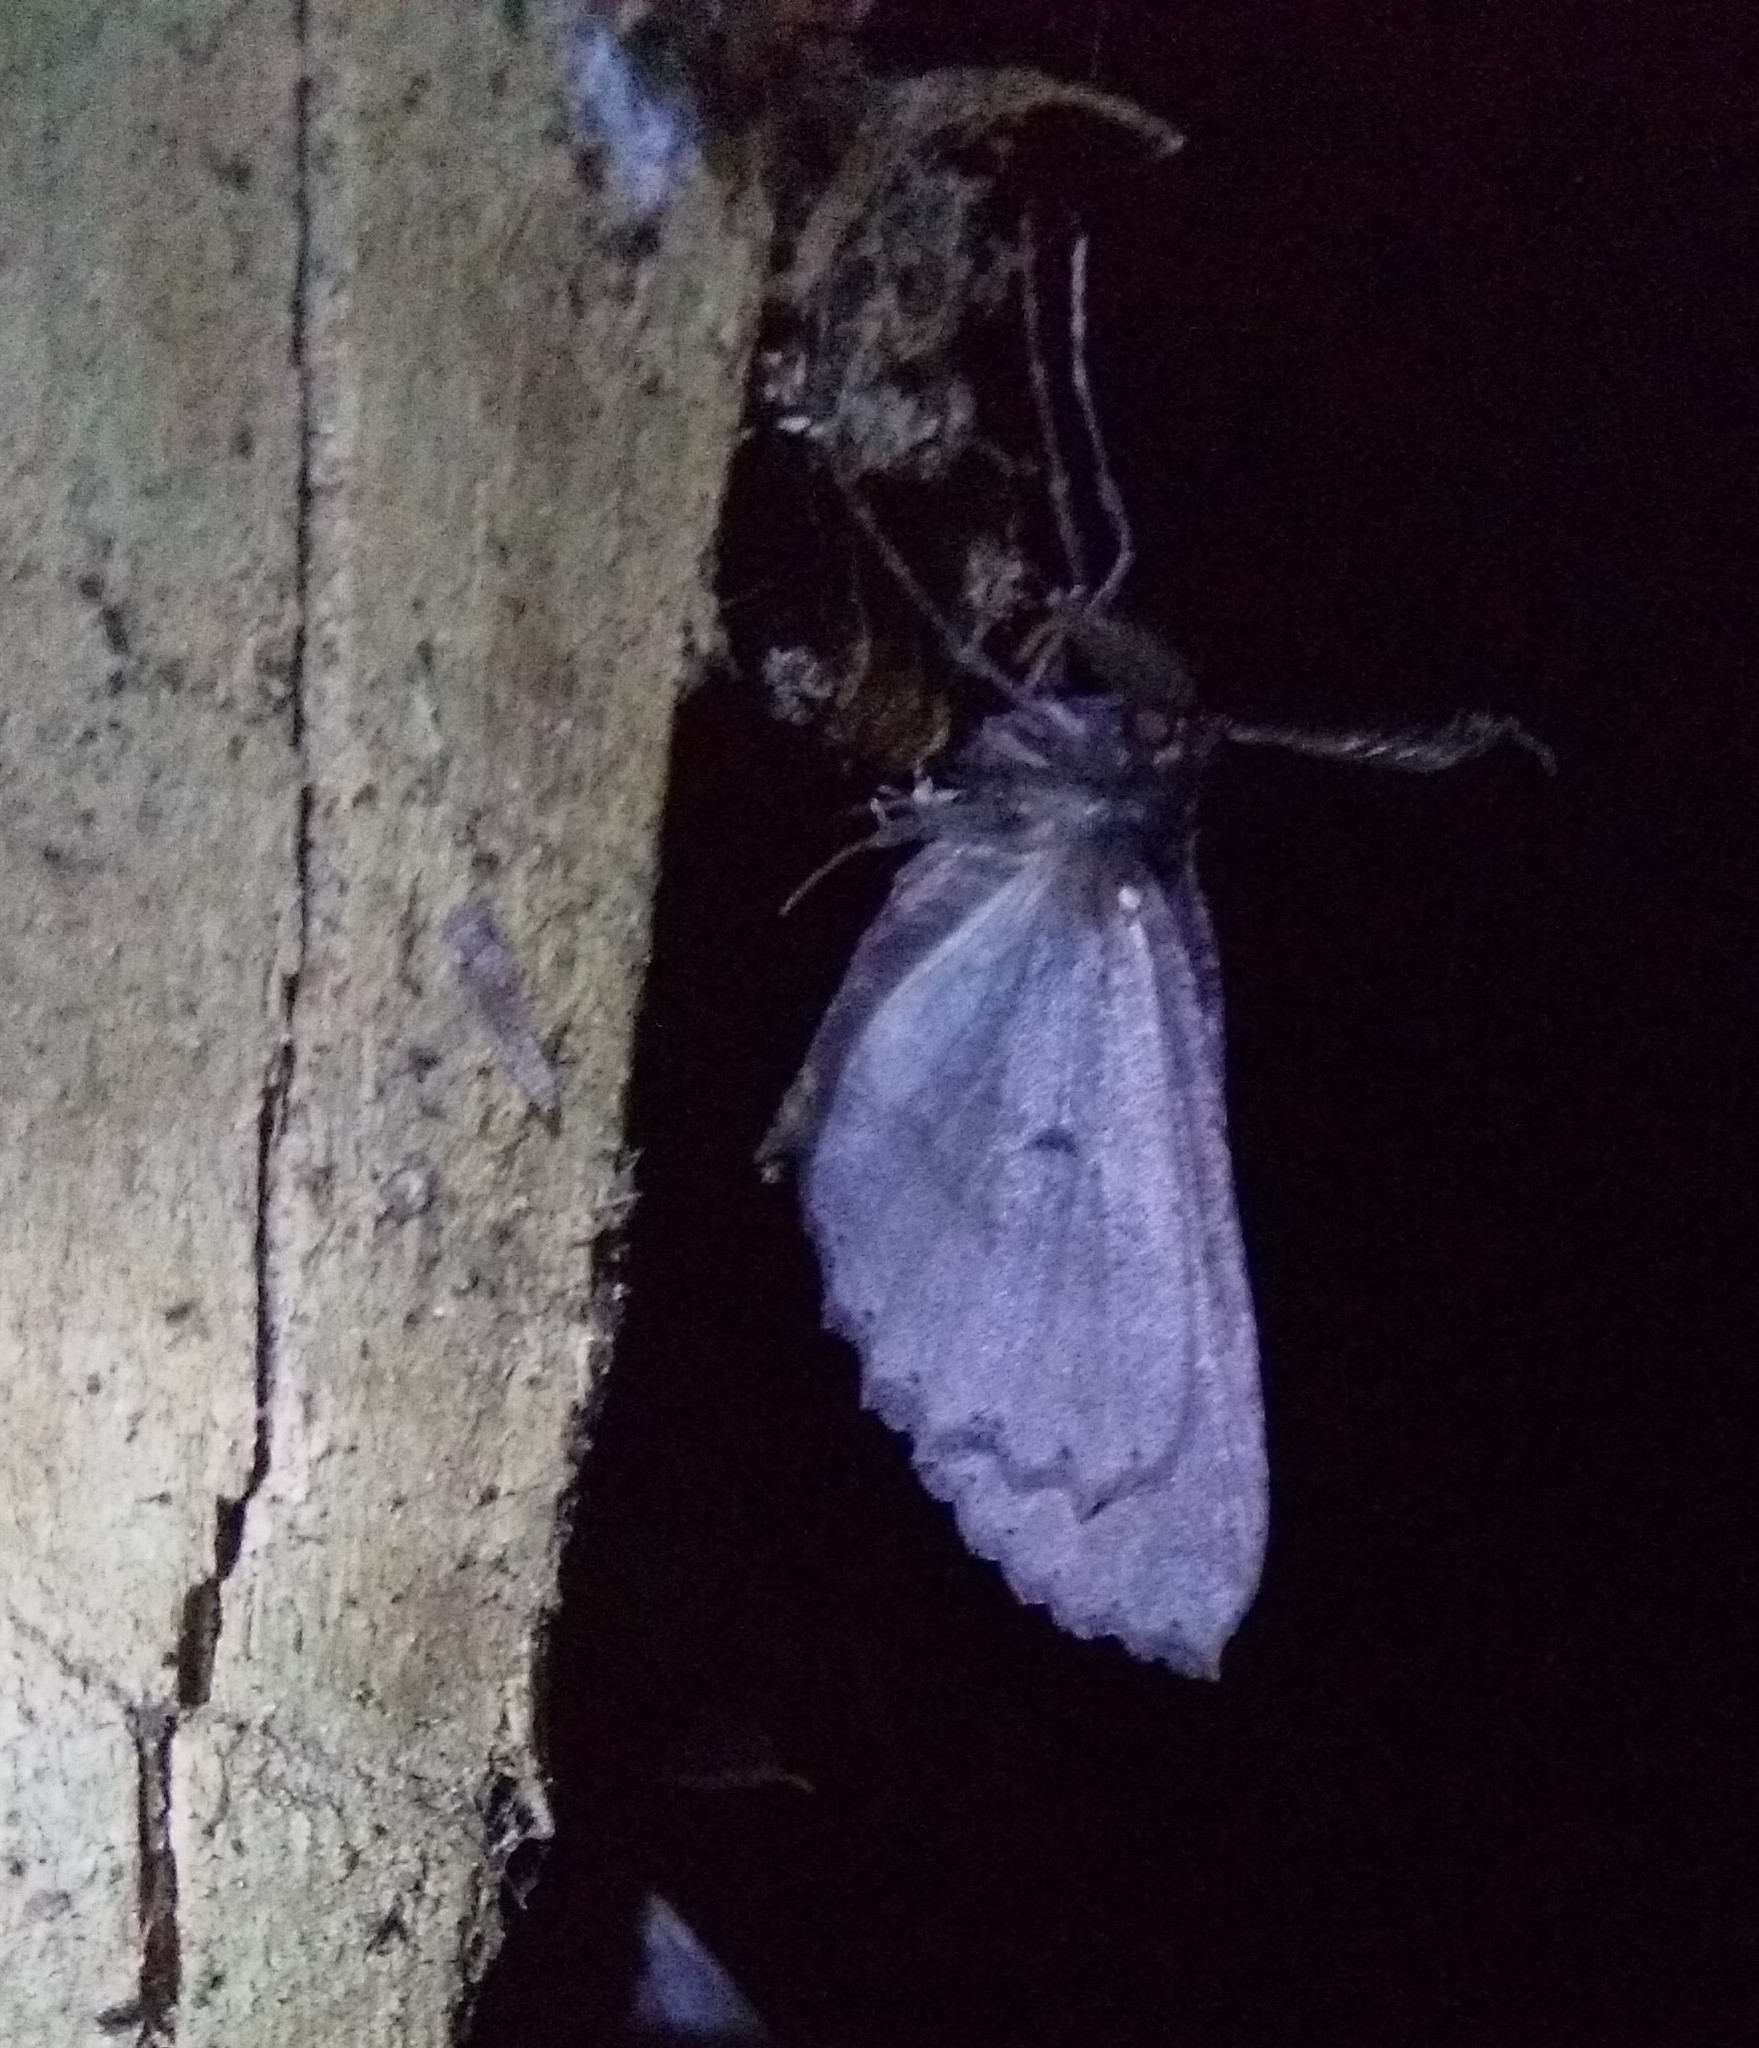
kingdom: Animalia
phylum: Arthropoda
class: Insecta
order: Lepidoptera
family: Geometridae
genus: Cleora
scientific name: Cleora scriptaria
